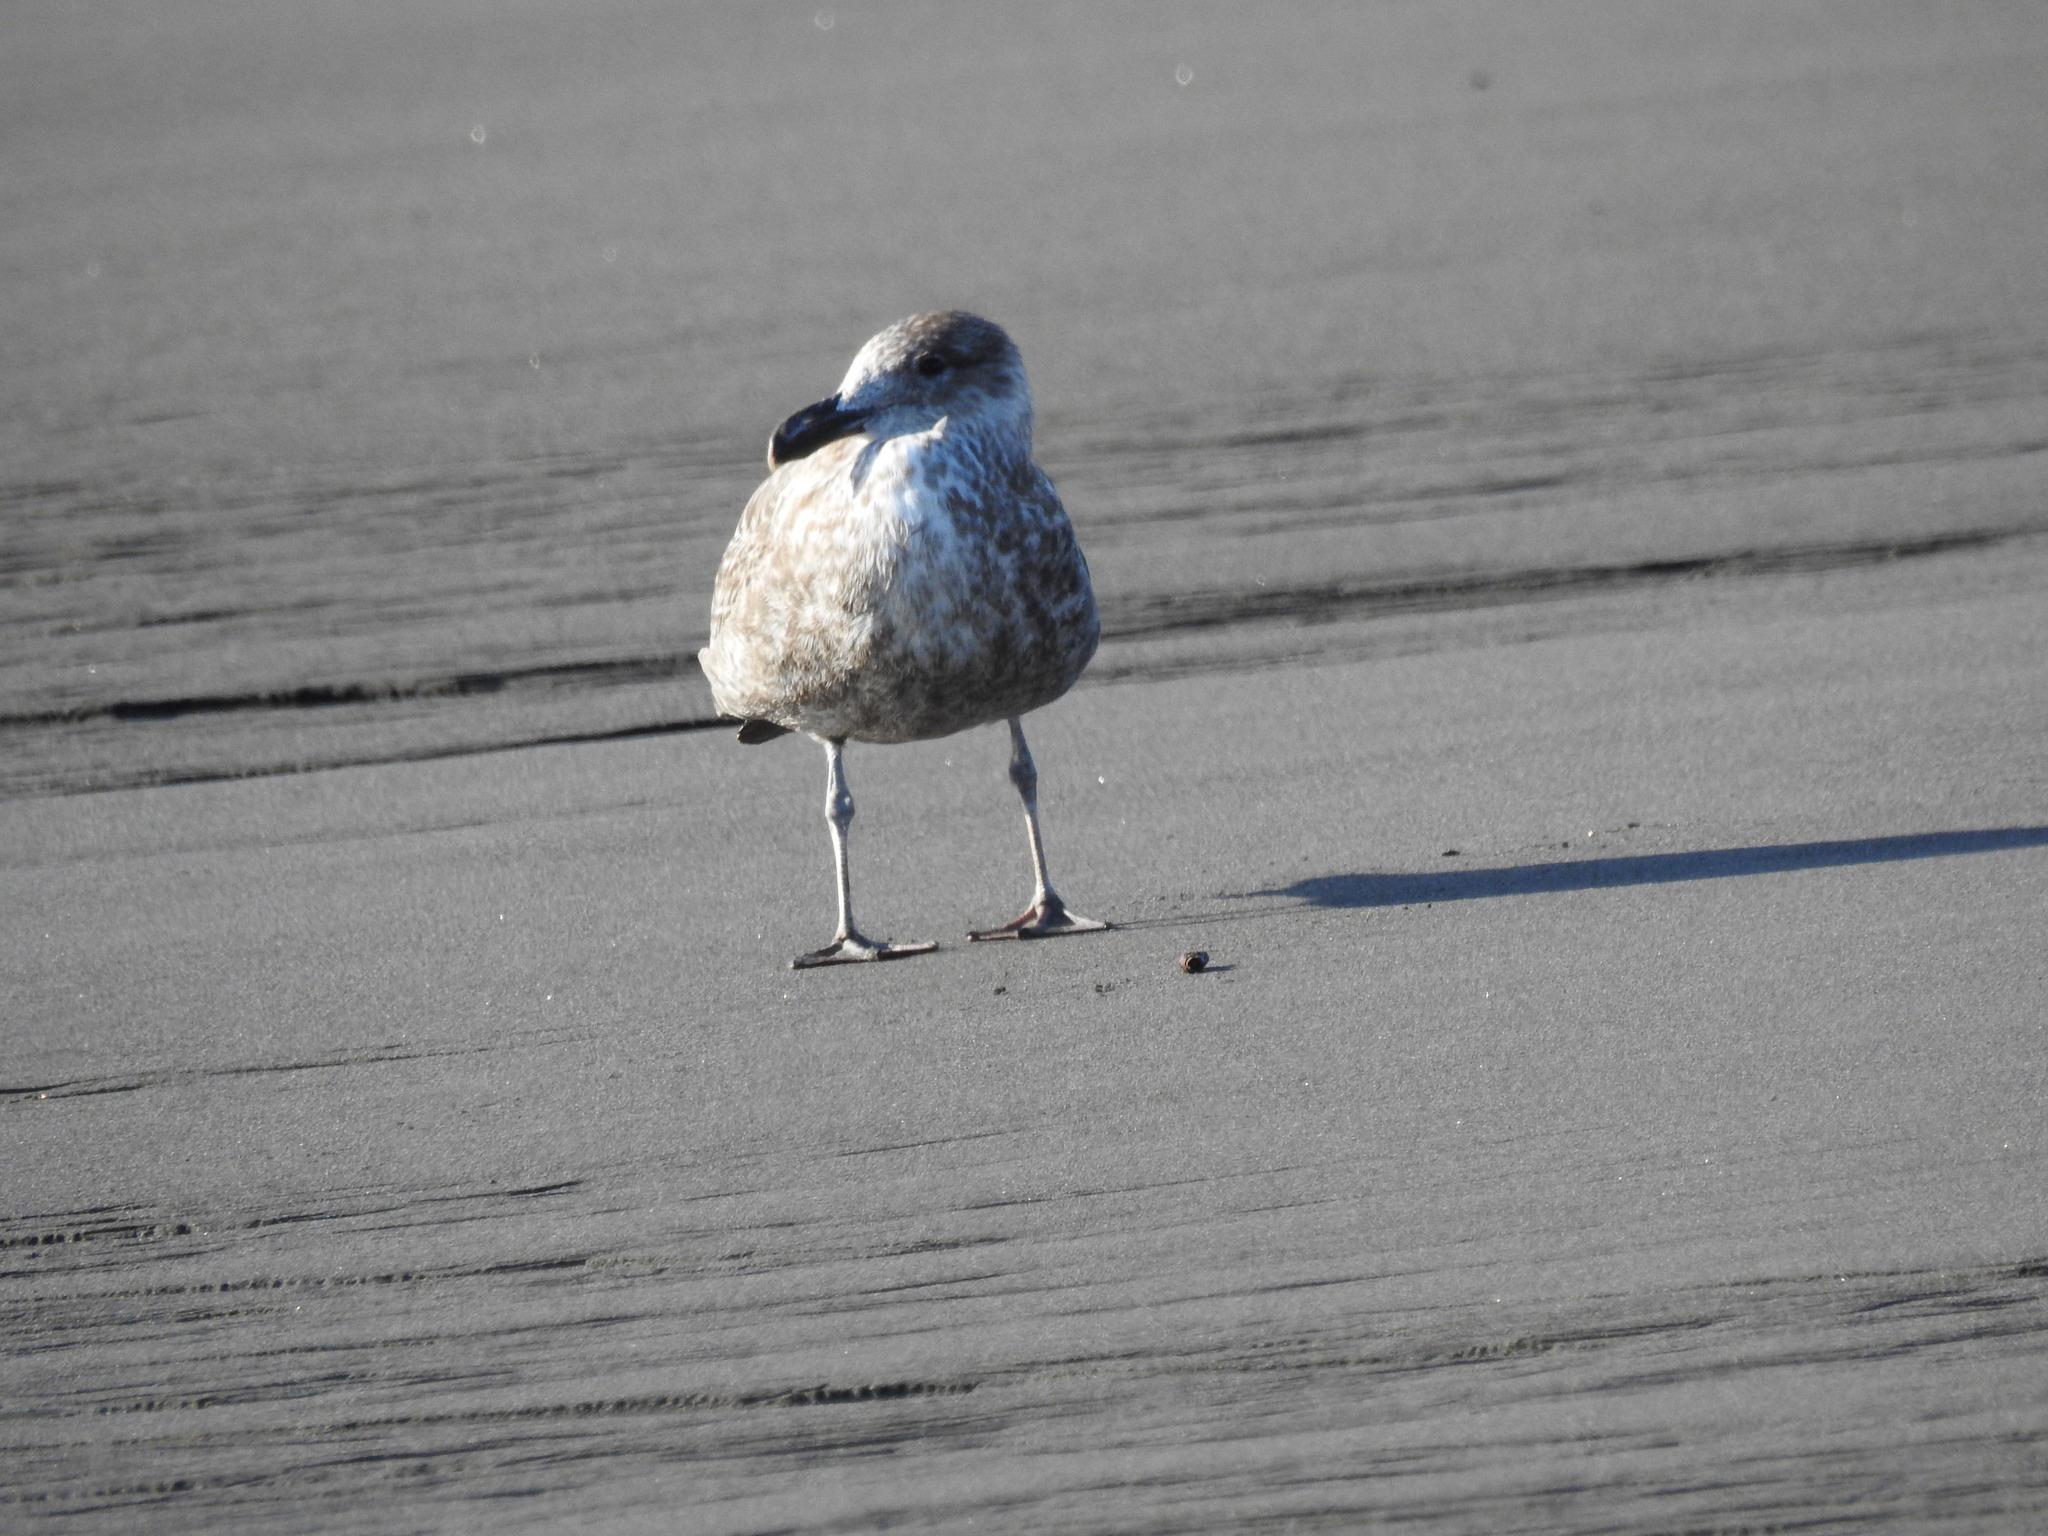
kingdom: Animalia
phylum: Chordata
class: Aves
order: Charadriiformes
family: Laridae
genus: Larus
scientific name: Larus dominicanus
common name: Kelp gull
